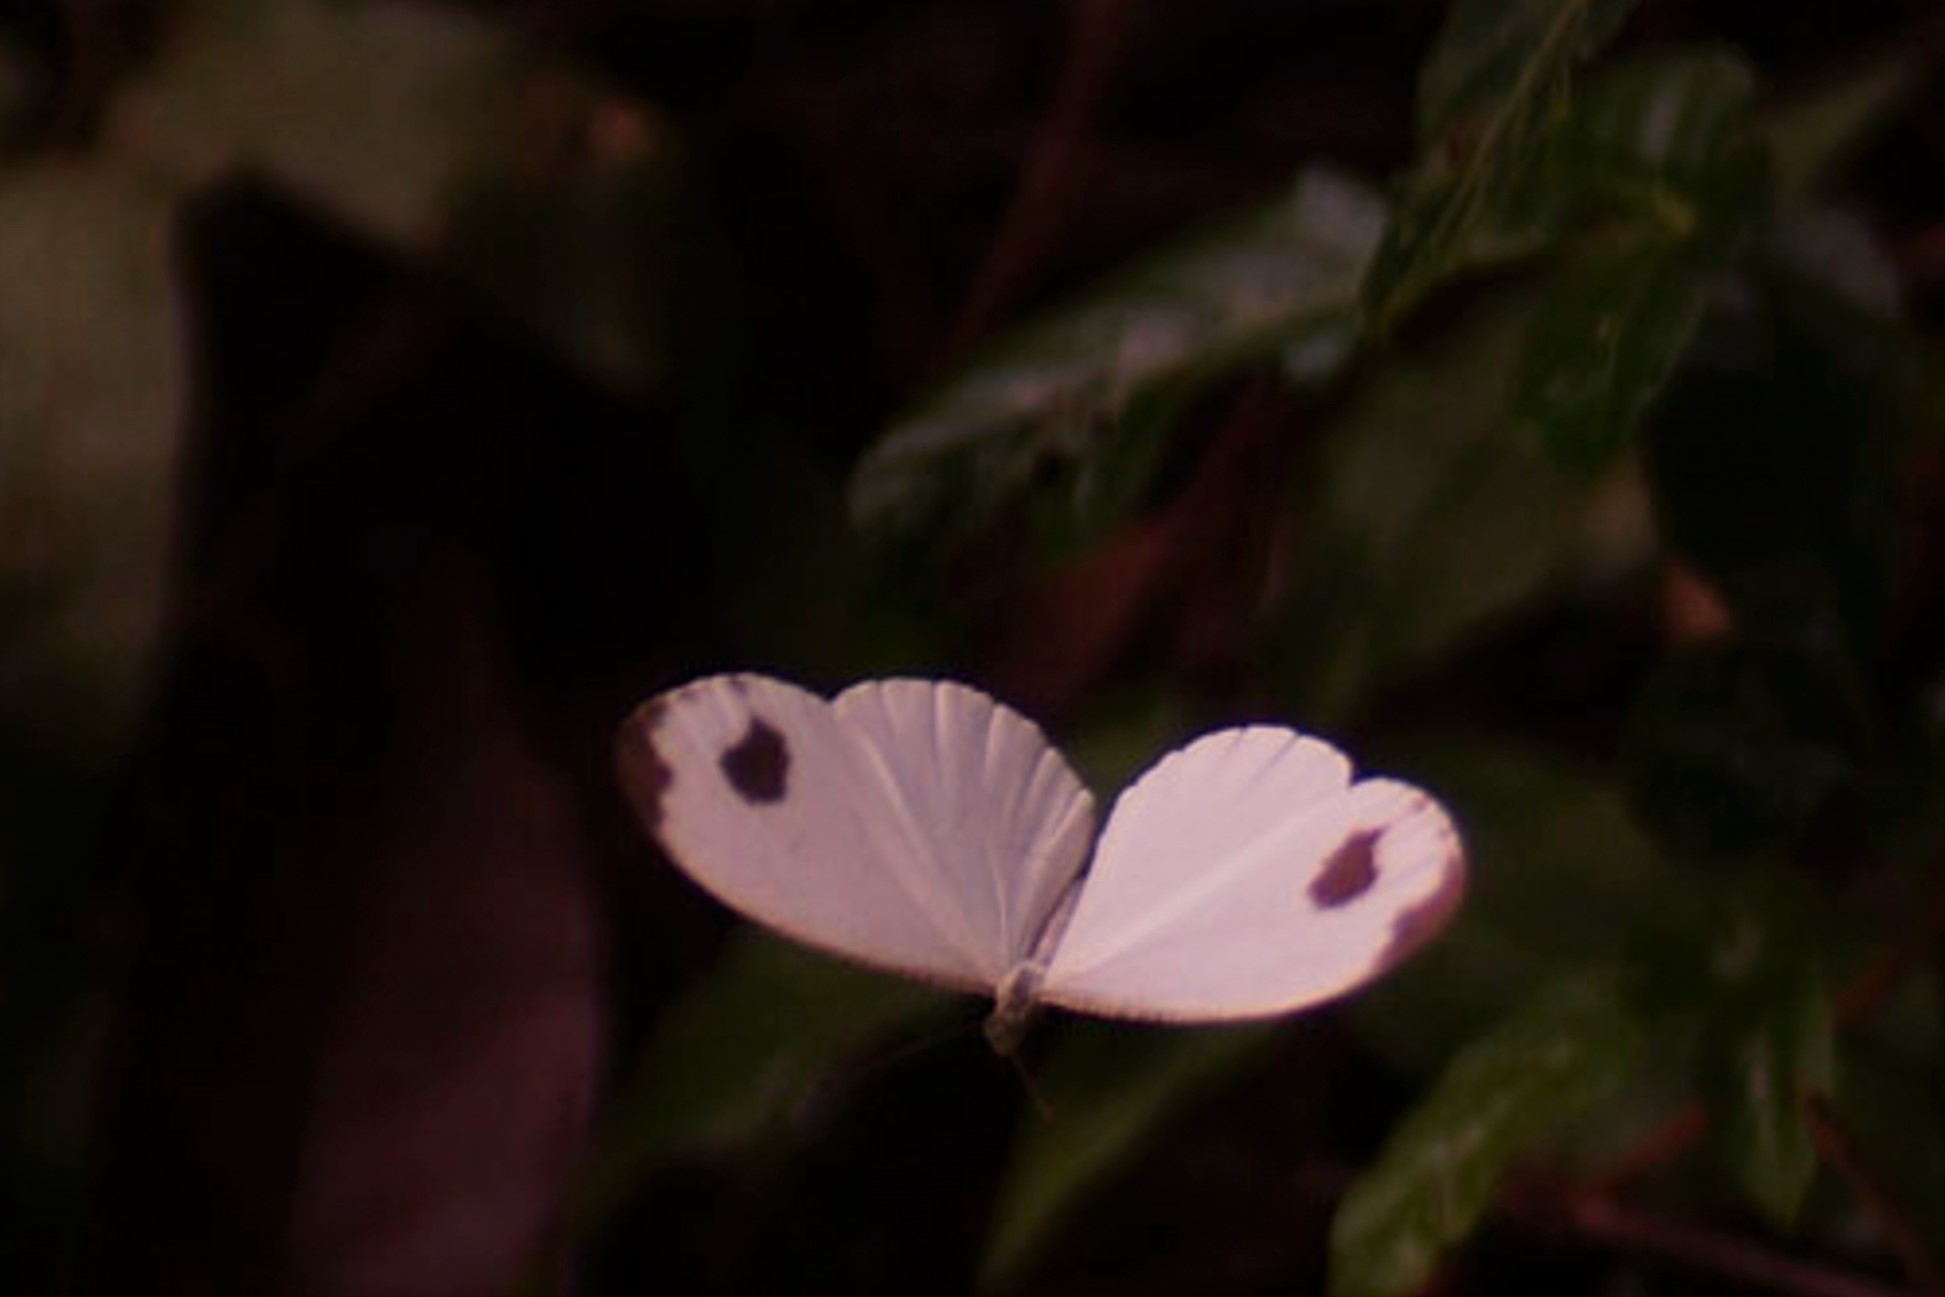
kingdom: Animalia
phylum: Arthropoda
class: Insecta
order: Lepidoptera
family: Pieridae
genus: Leptosia
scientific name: Leptosia nina
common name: Psyche
